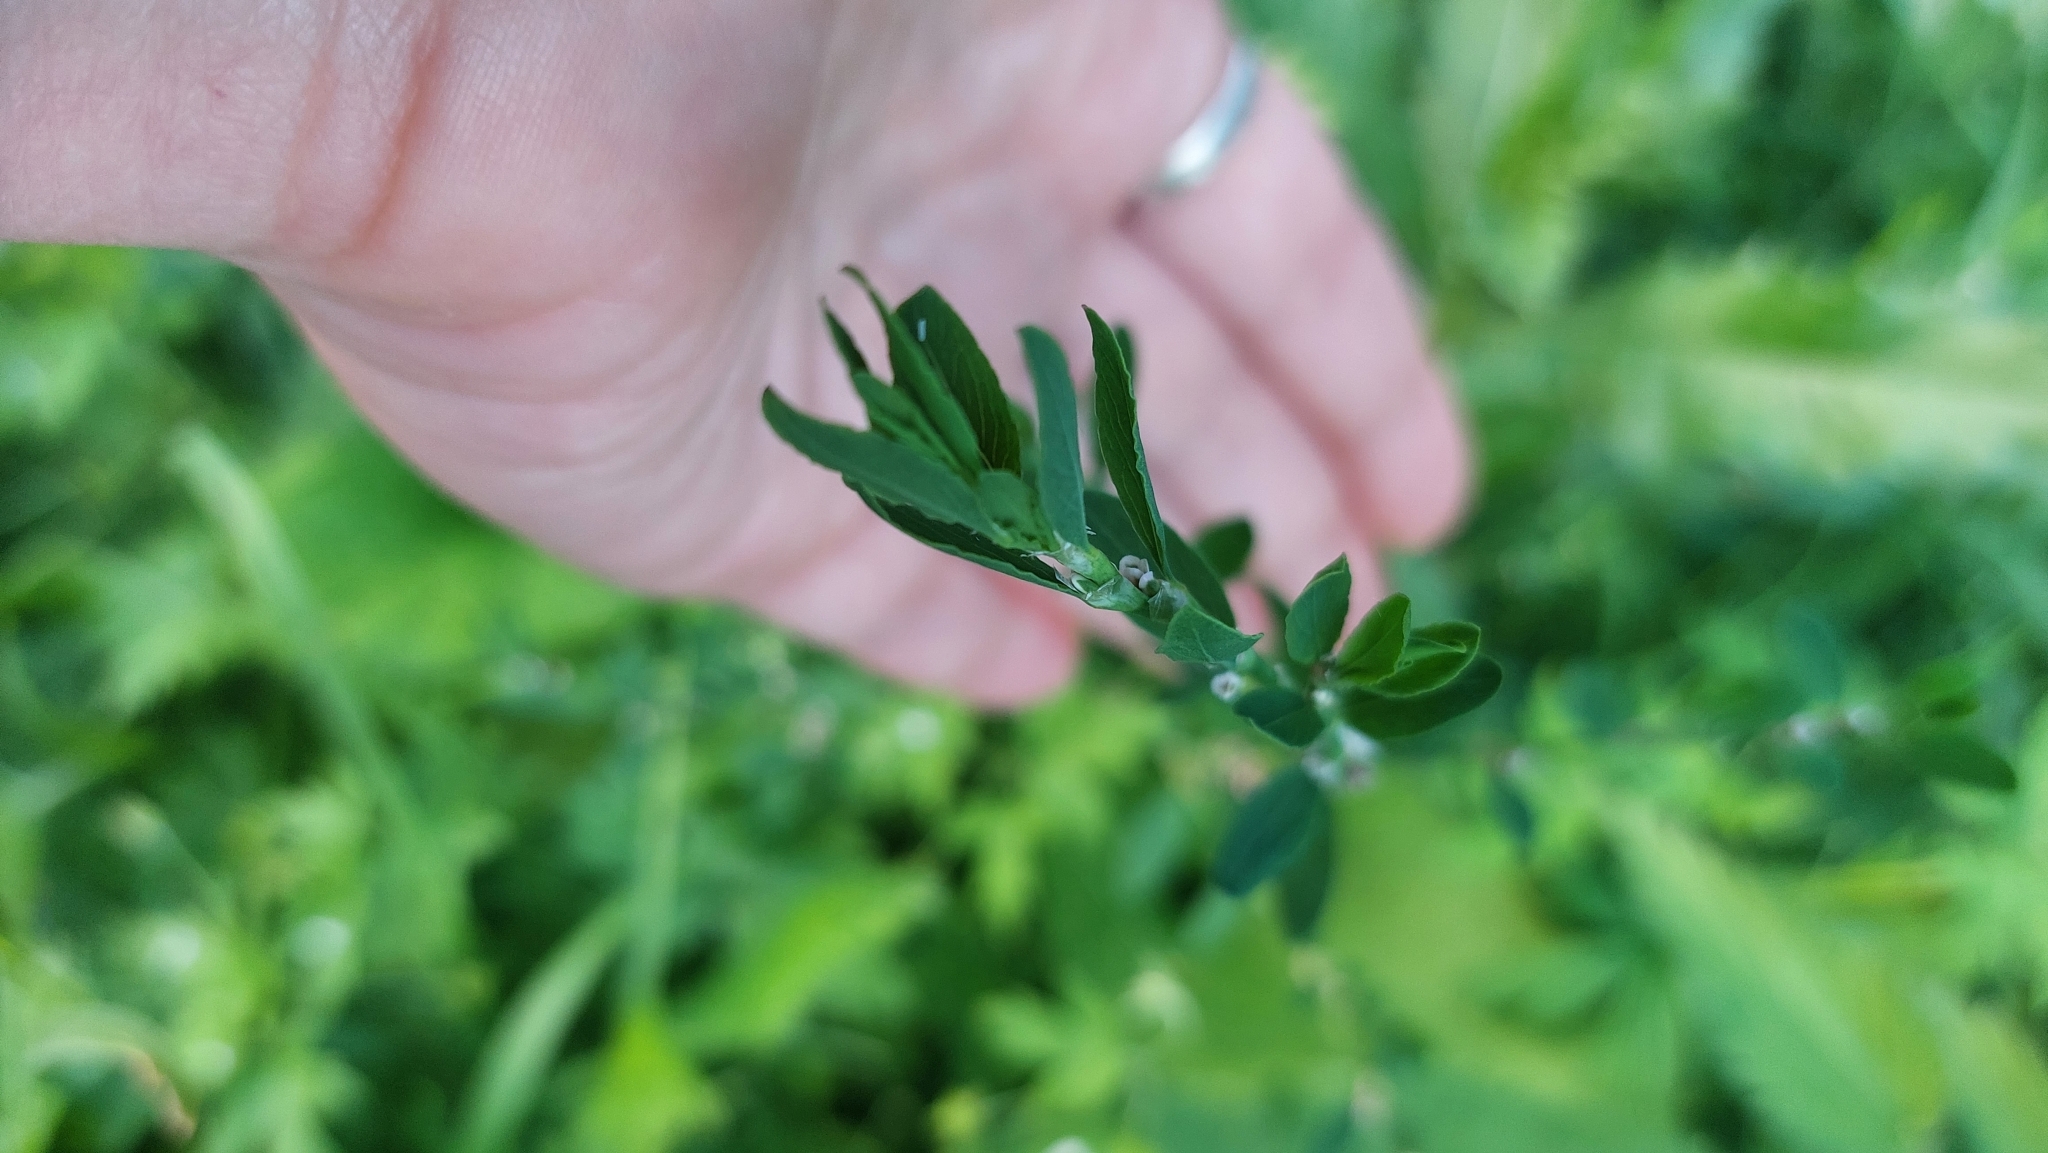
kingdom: Plantae
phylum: Tracheophyta
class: Magnoliopsida
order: Caryophyllales
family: Polygonaceae
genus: Polygonum
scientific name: Polygonum
